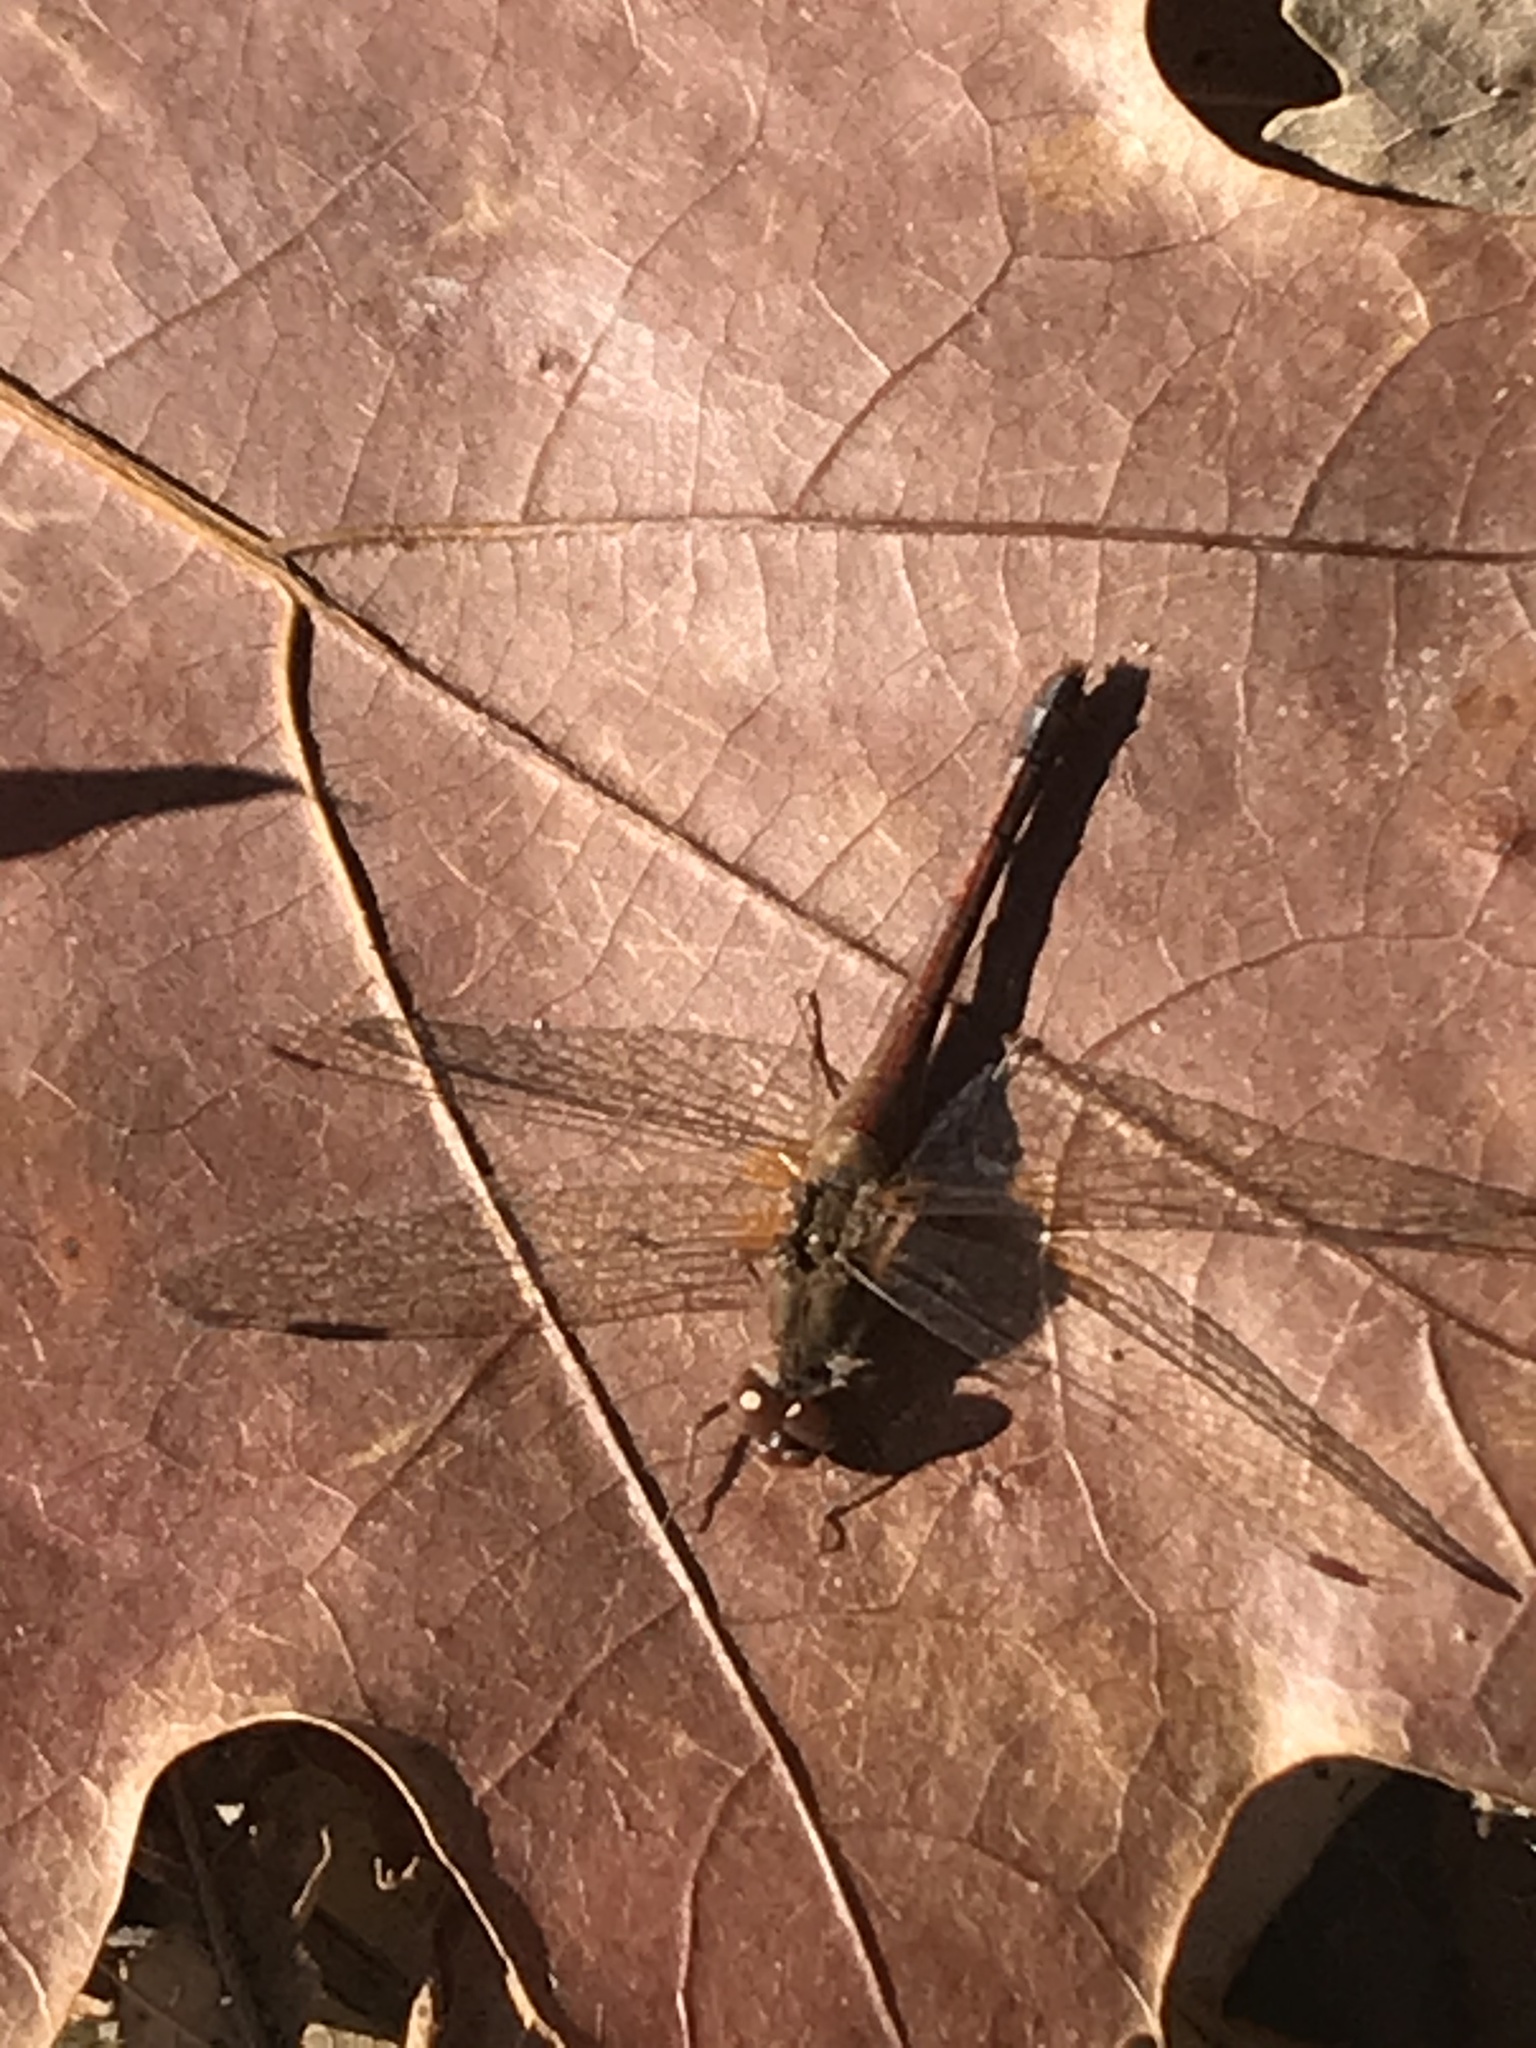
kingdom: Animalia
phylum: Arthropoda
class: Insecta
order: Odonata
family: Libellulidae
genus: Sympetrum
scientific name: Sympetrum vicinum
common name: Autumn meadowhawk
